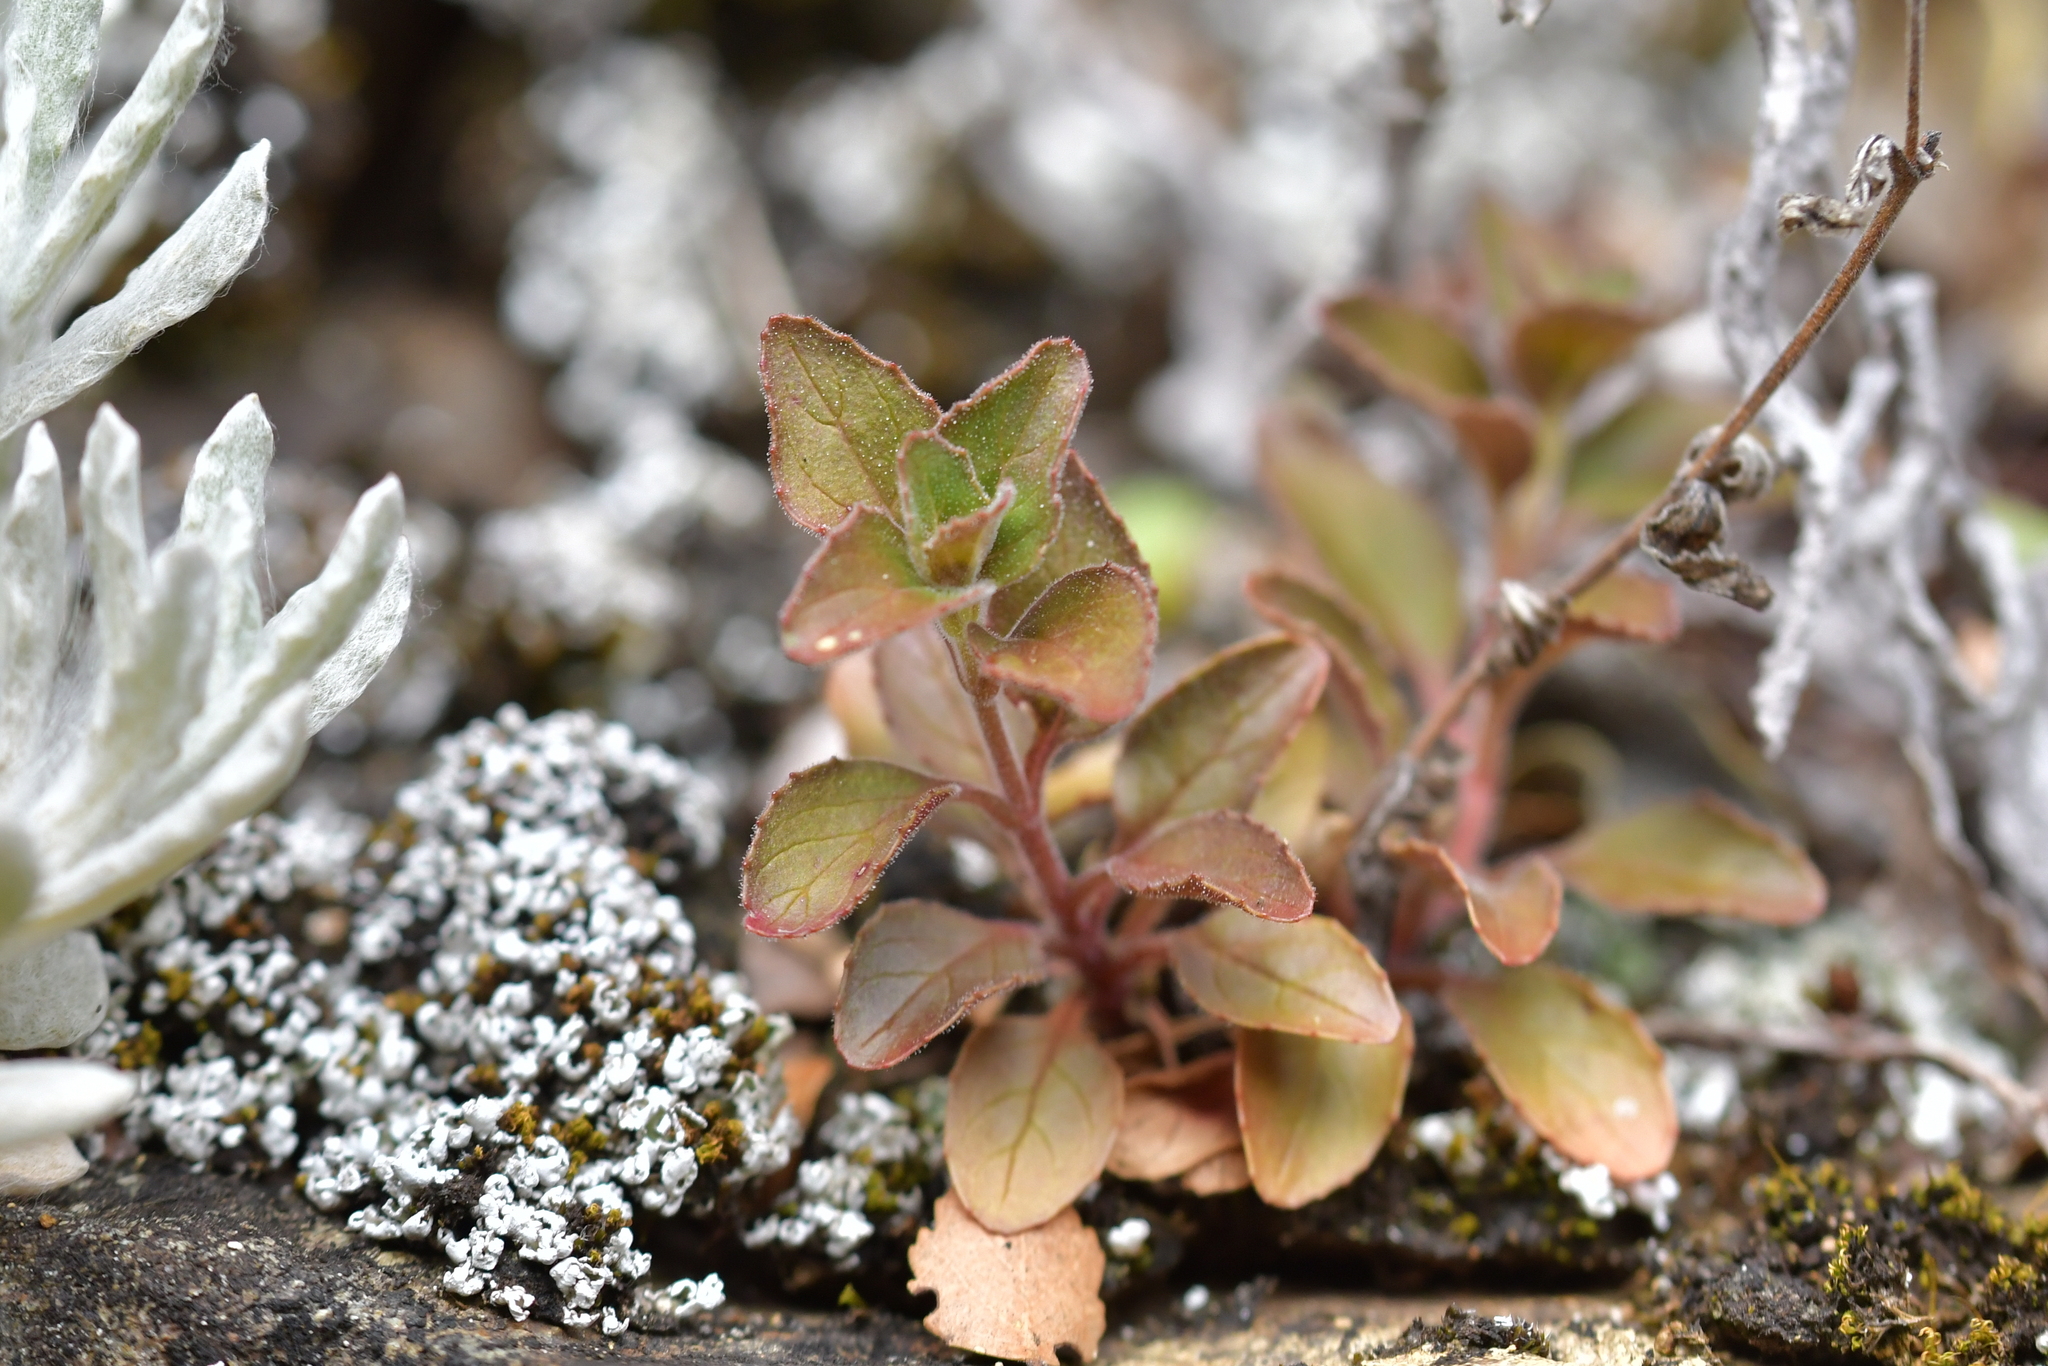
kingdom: Plantae
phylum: Tracheophyta
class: Magnoliopsida
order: Myrtales
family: Onagraceae
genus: Epilobium
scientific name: Epilobium pubens
